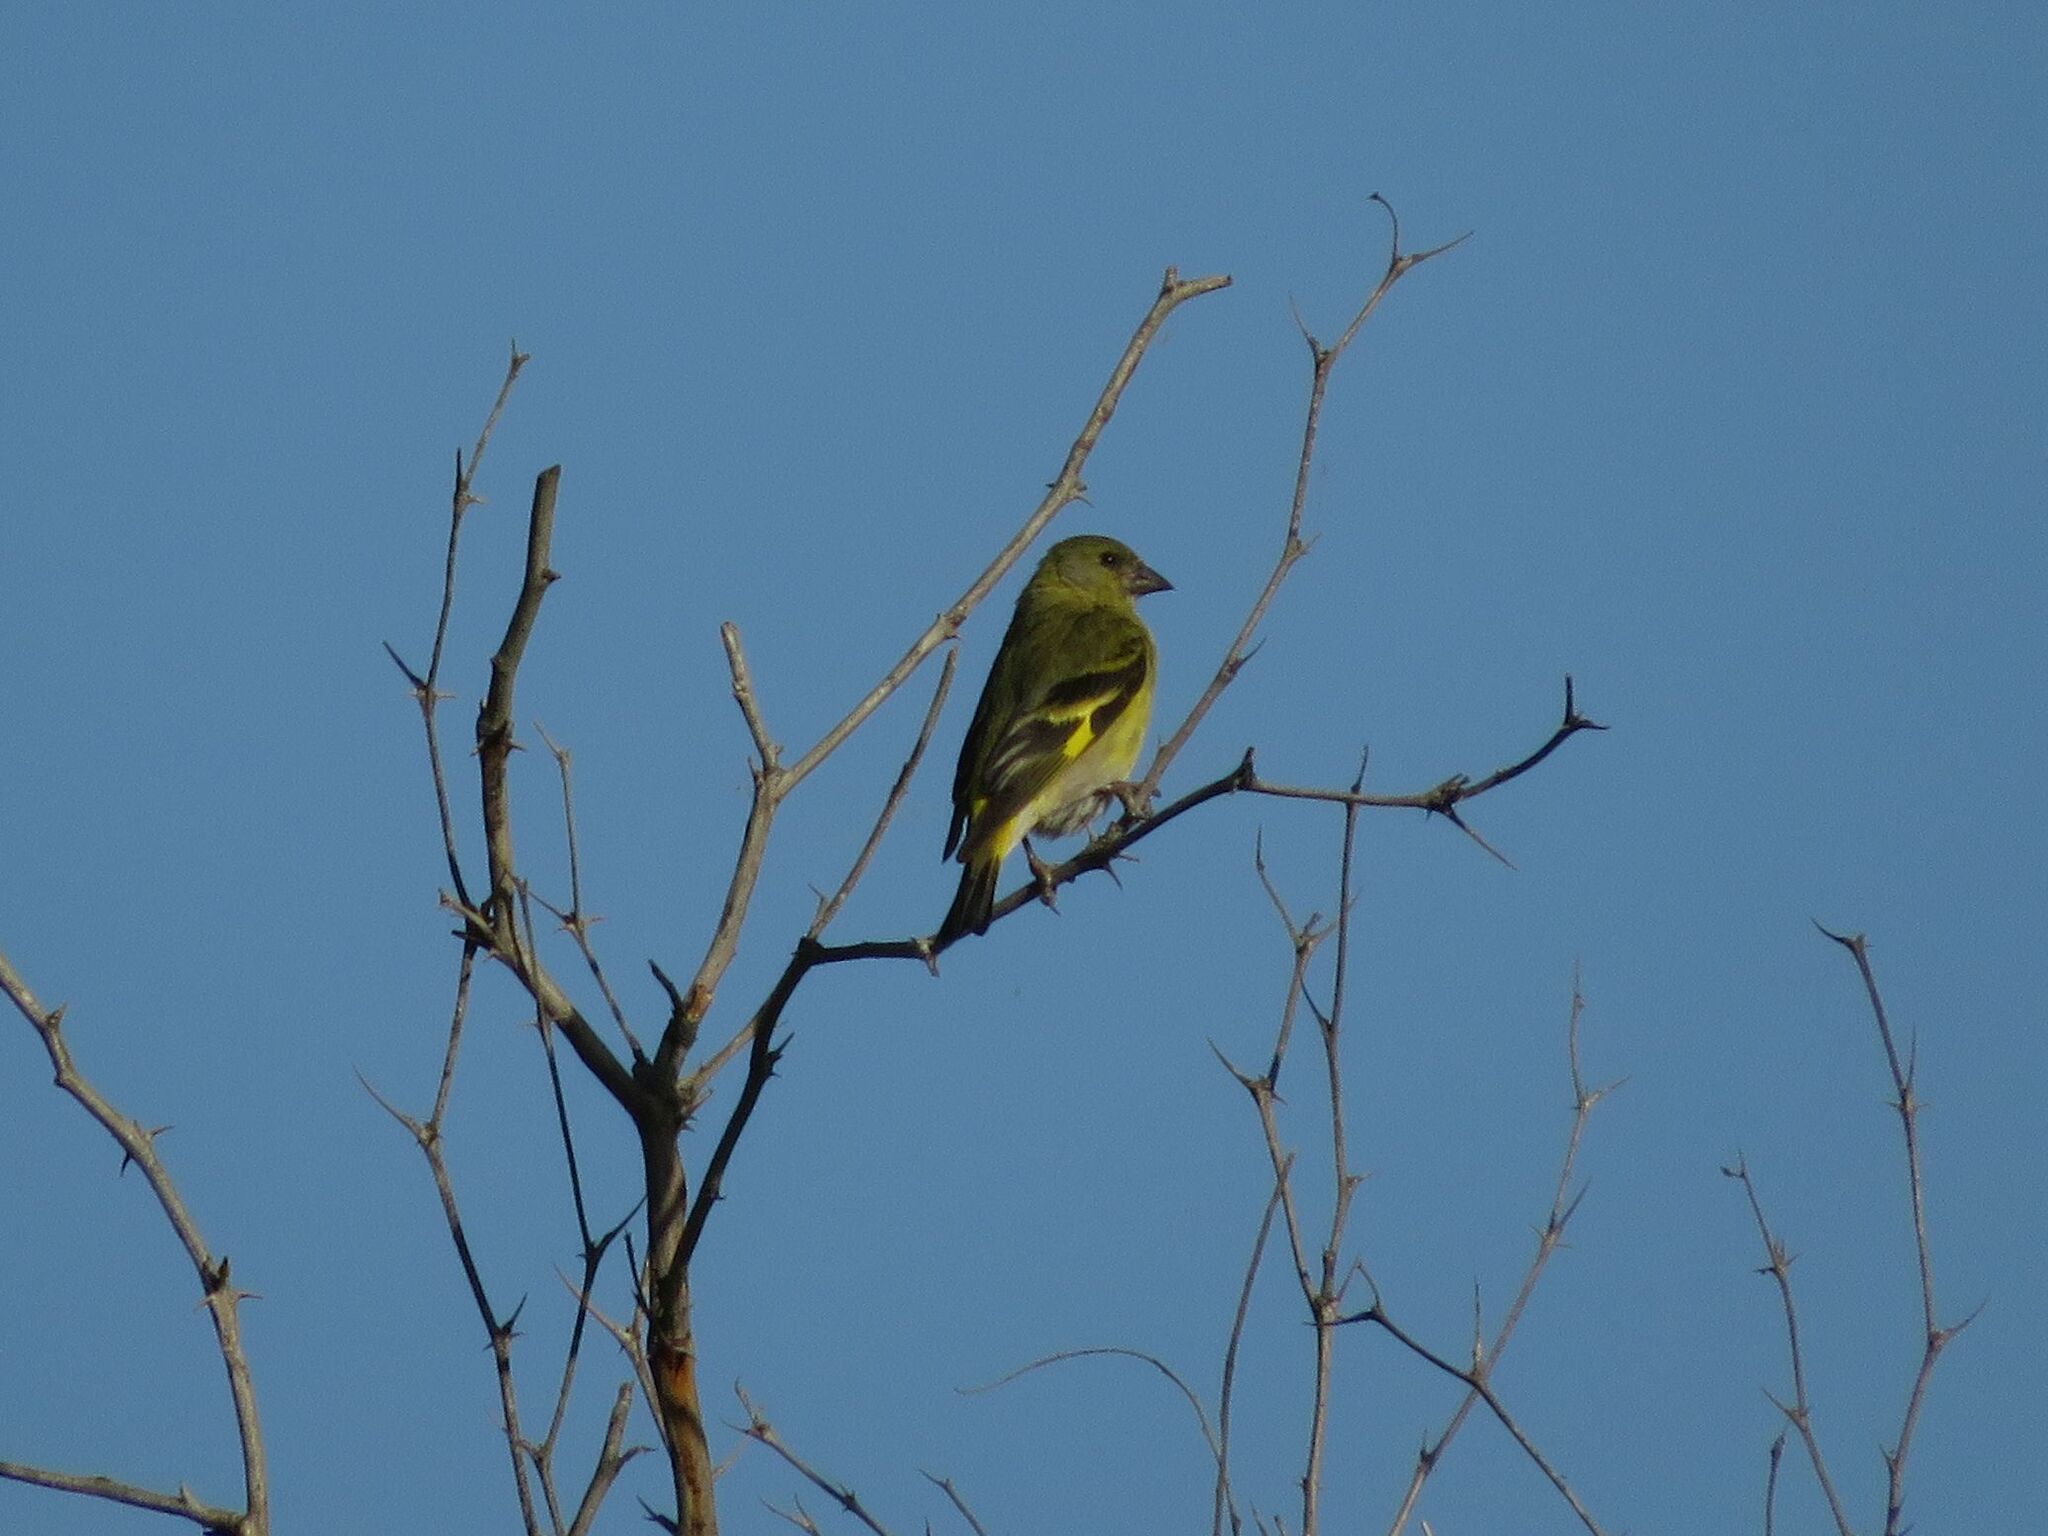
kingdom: Animalia
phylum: Chordata
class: Aves
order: Passeriformes
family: Fringillidae
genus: Spinus
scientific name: Spinus magellanicus
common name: Hooded siskin
